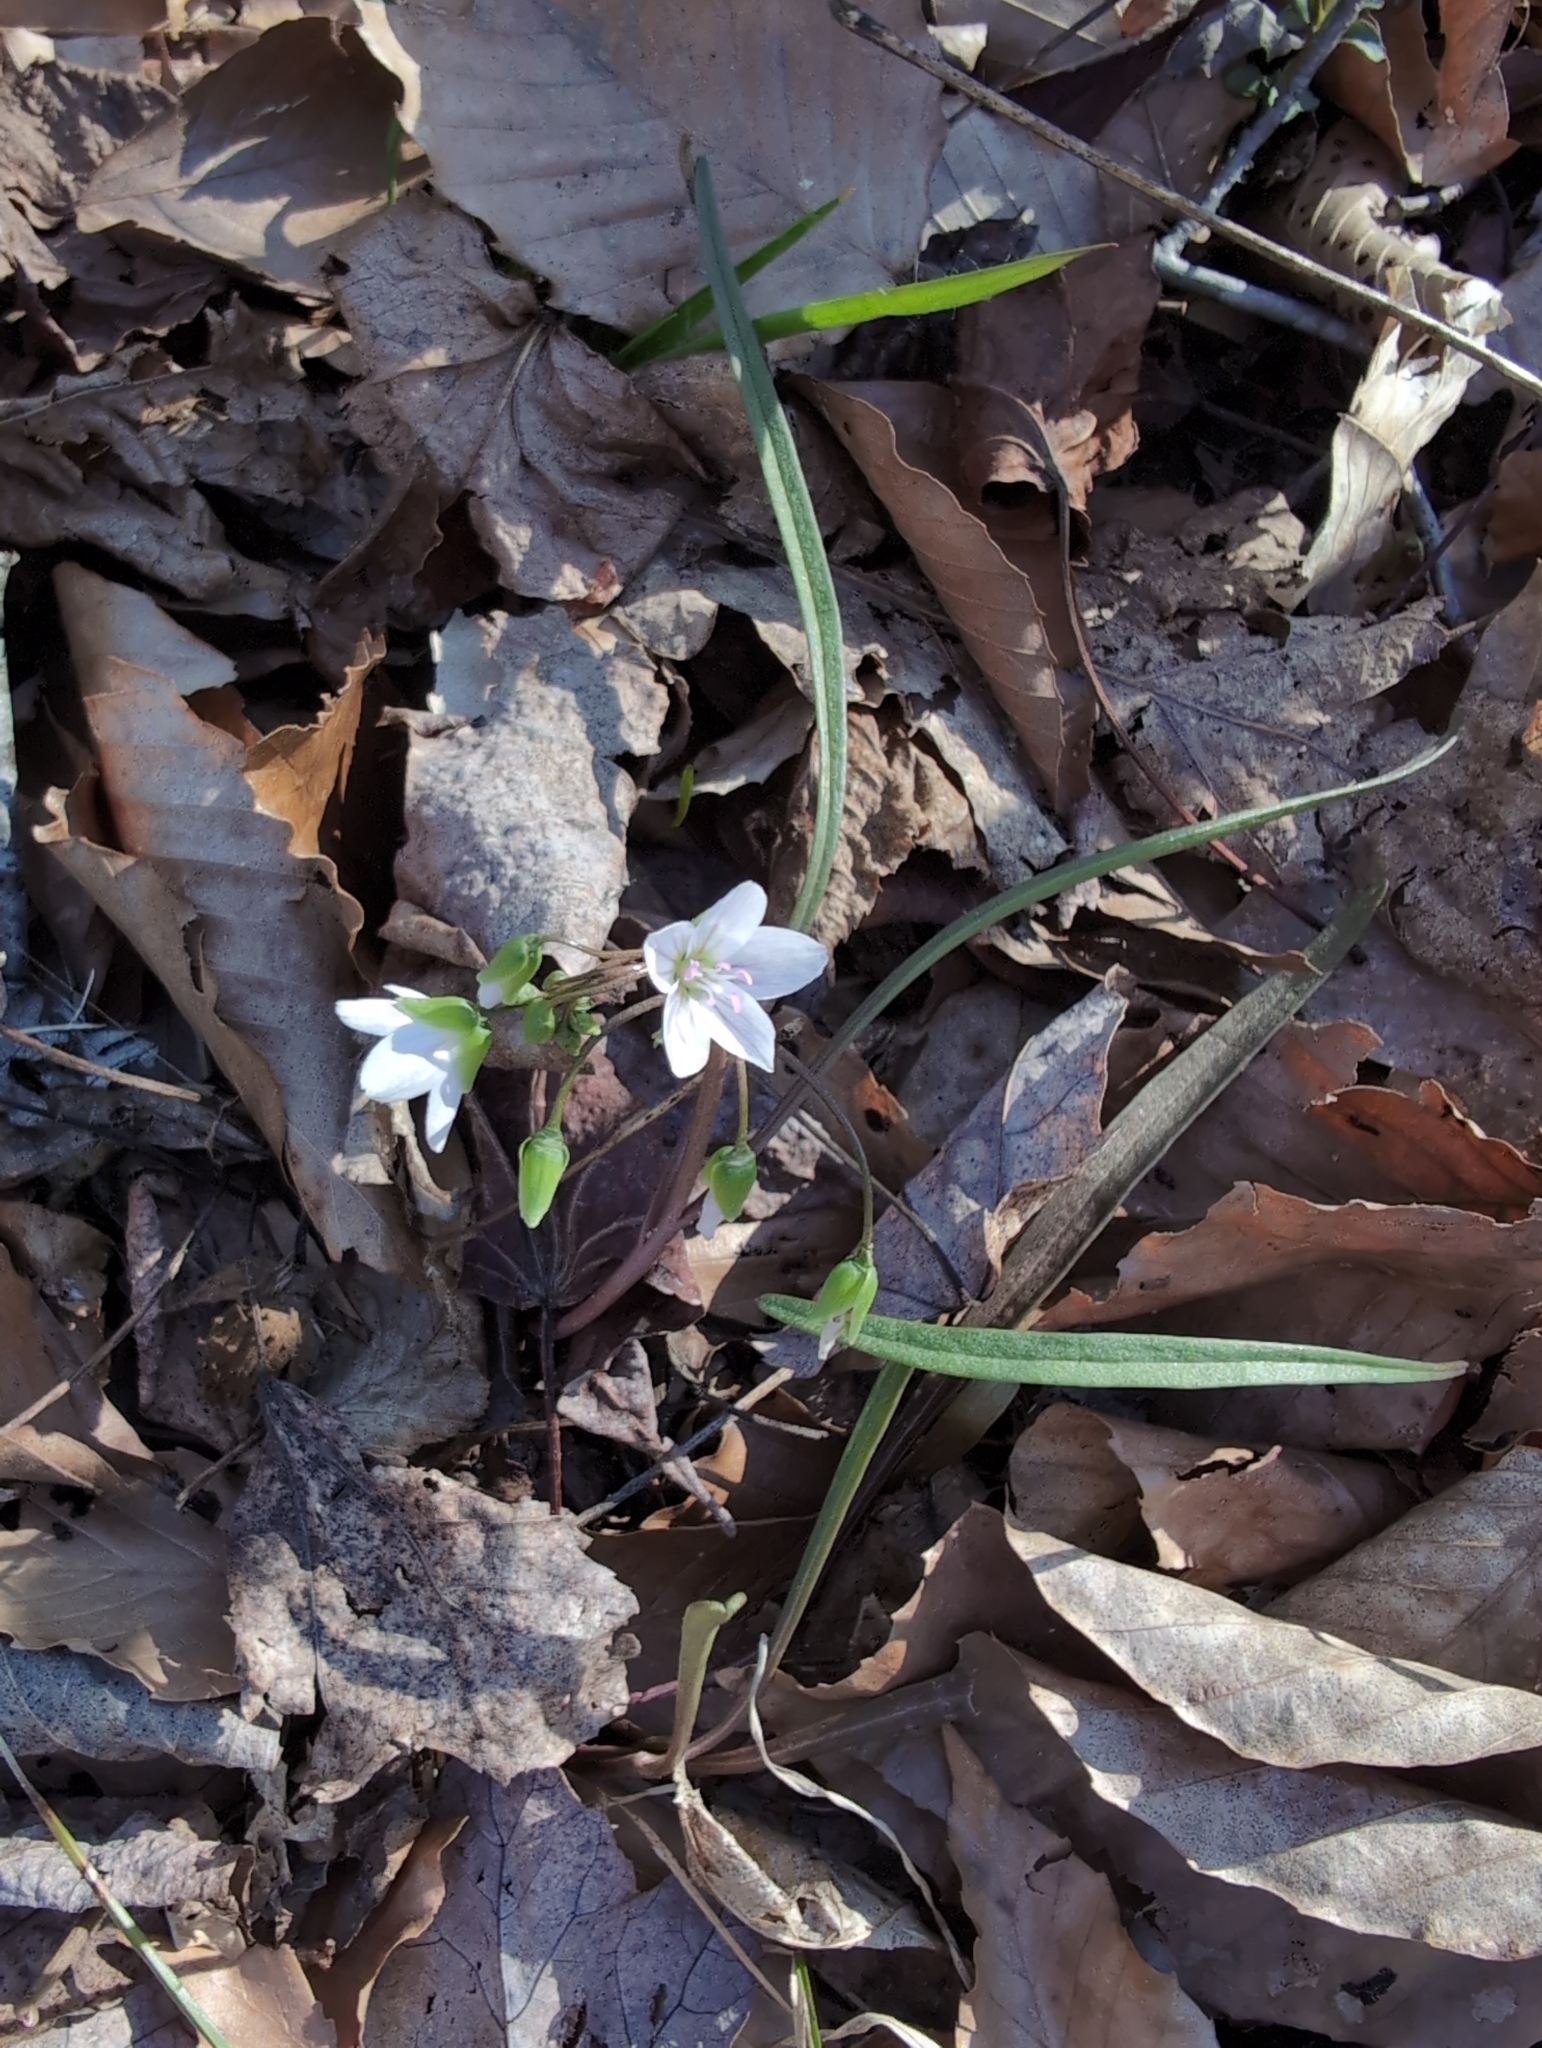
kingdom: Plantae
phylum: Tracheophyta
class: Magnoliopsida
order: Caryophyllales
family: Montiaceae
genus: Claytonia
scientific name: Claytonia virginica
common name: Virginia springbeauty
